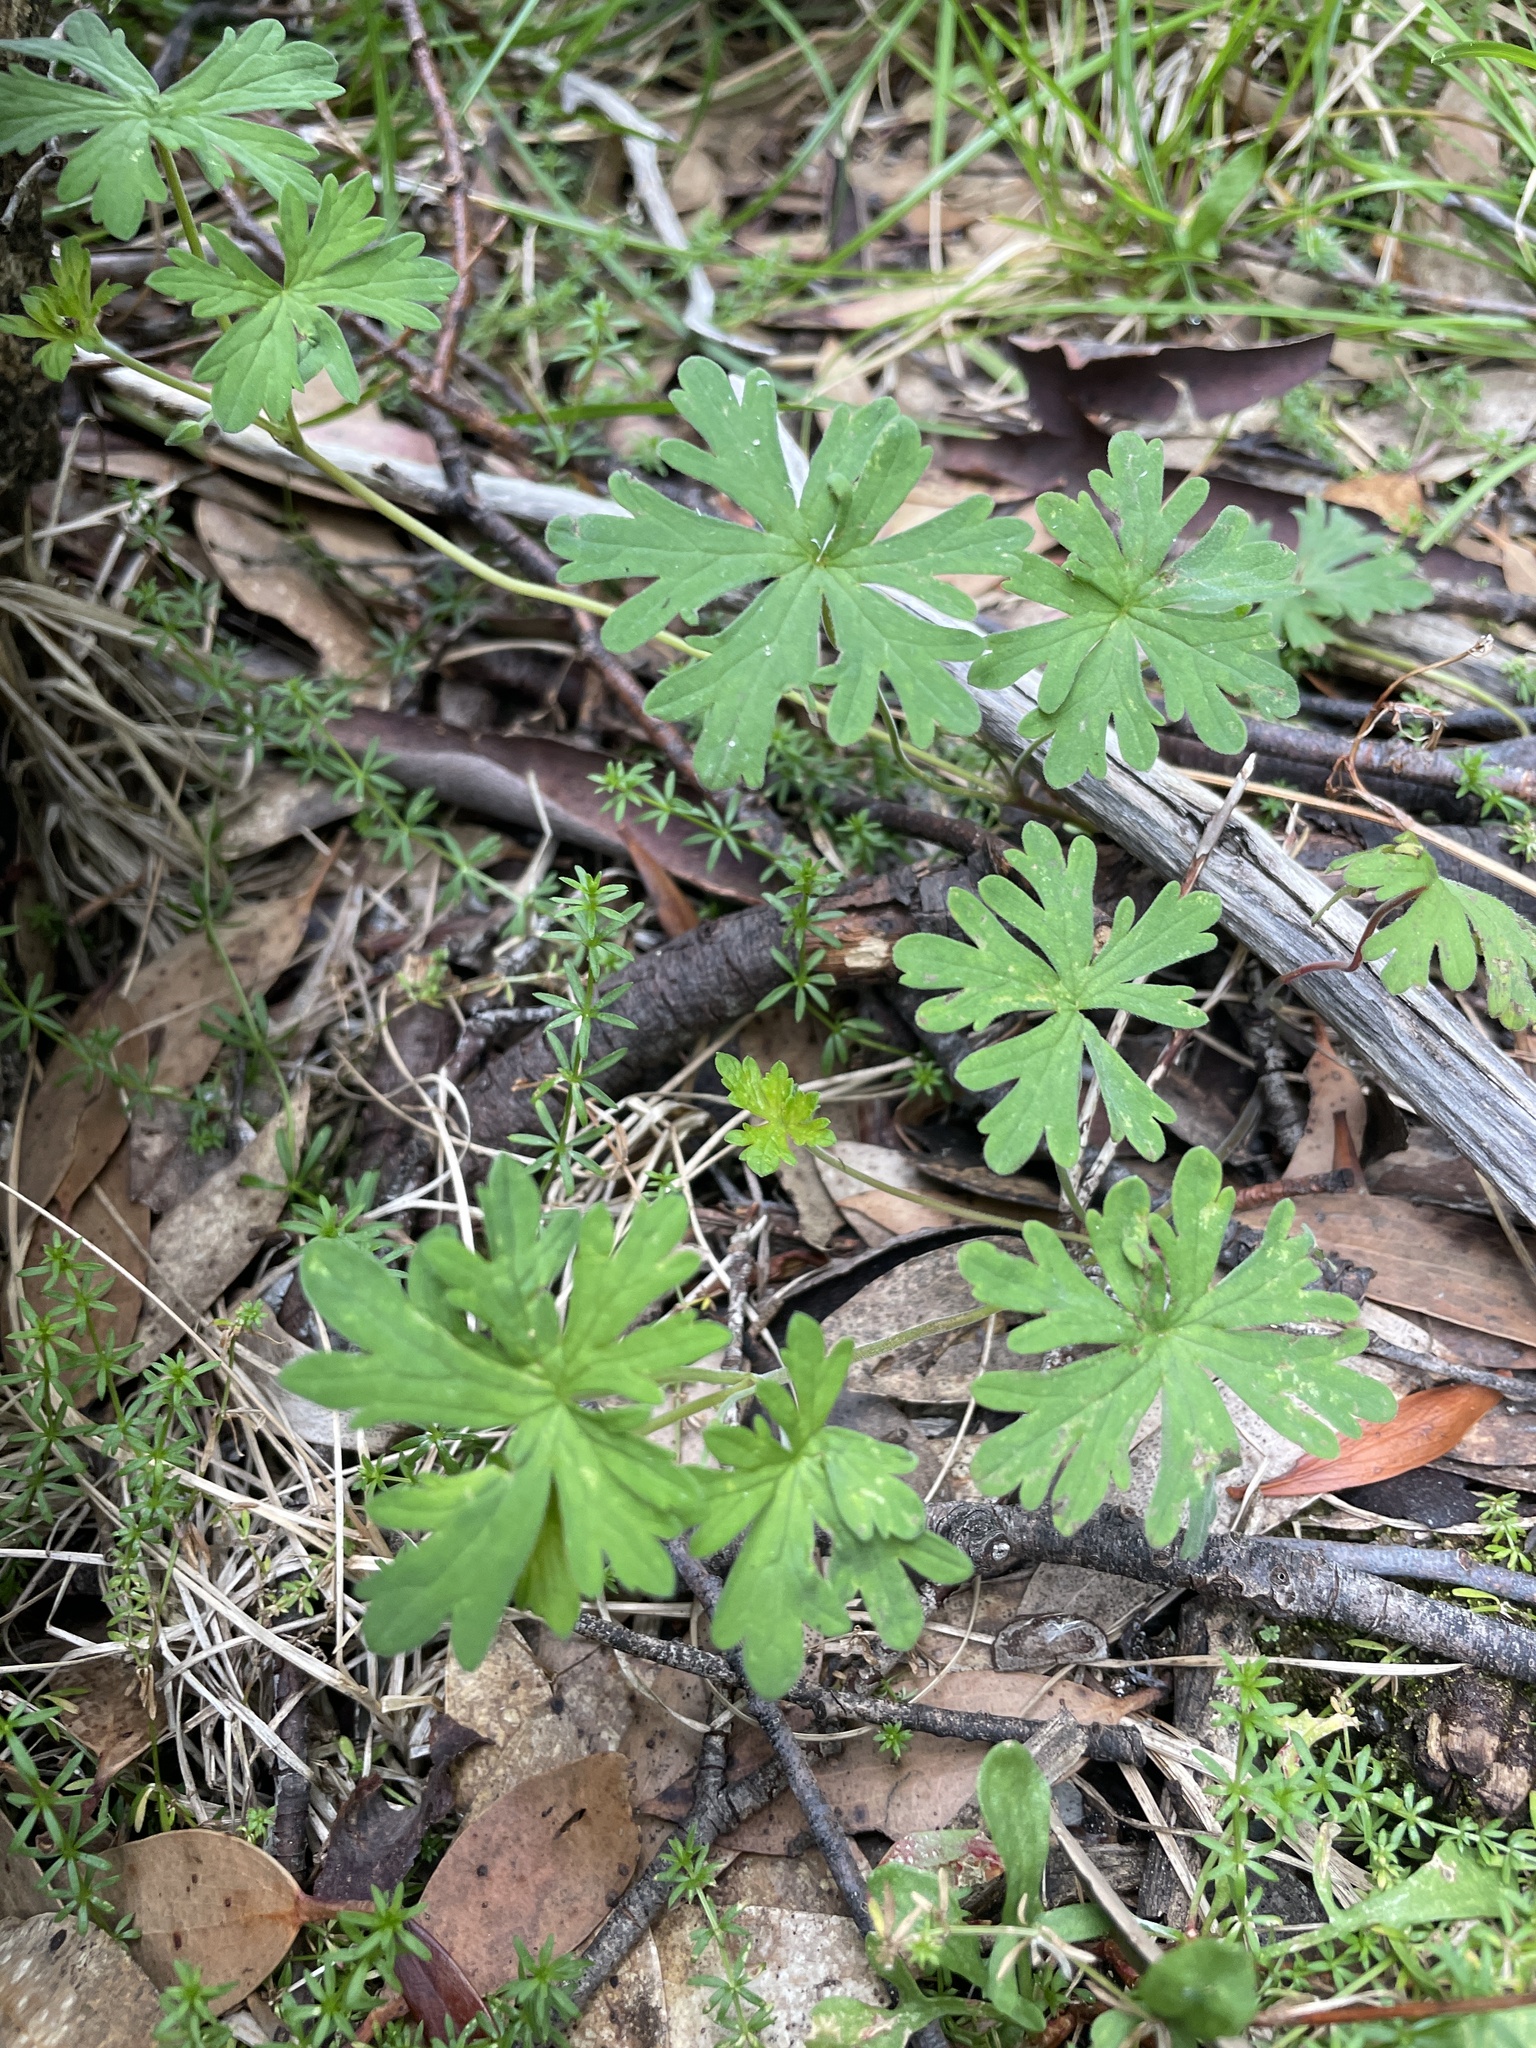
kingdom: Plantae
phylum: Tracheophyta
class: Magnoliopsida
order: Geraniales
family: Geraniaceae
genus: Geranium
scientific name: Geranium
